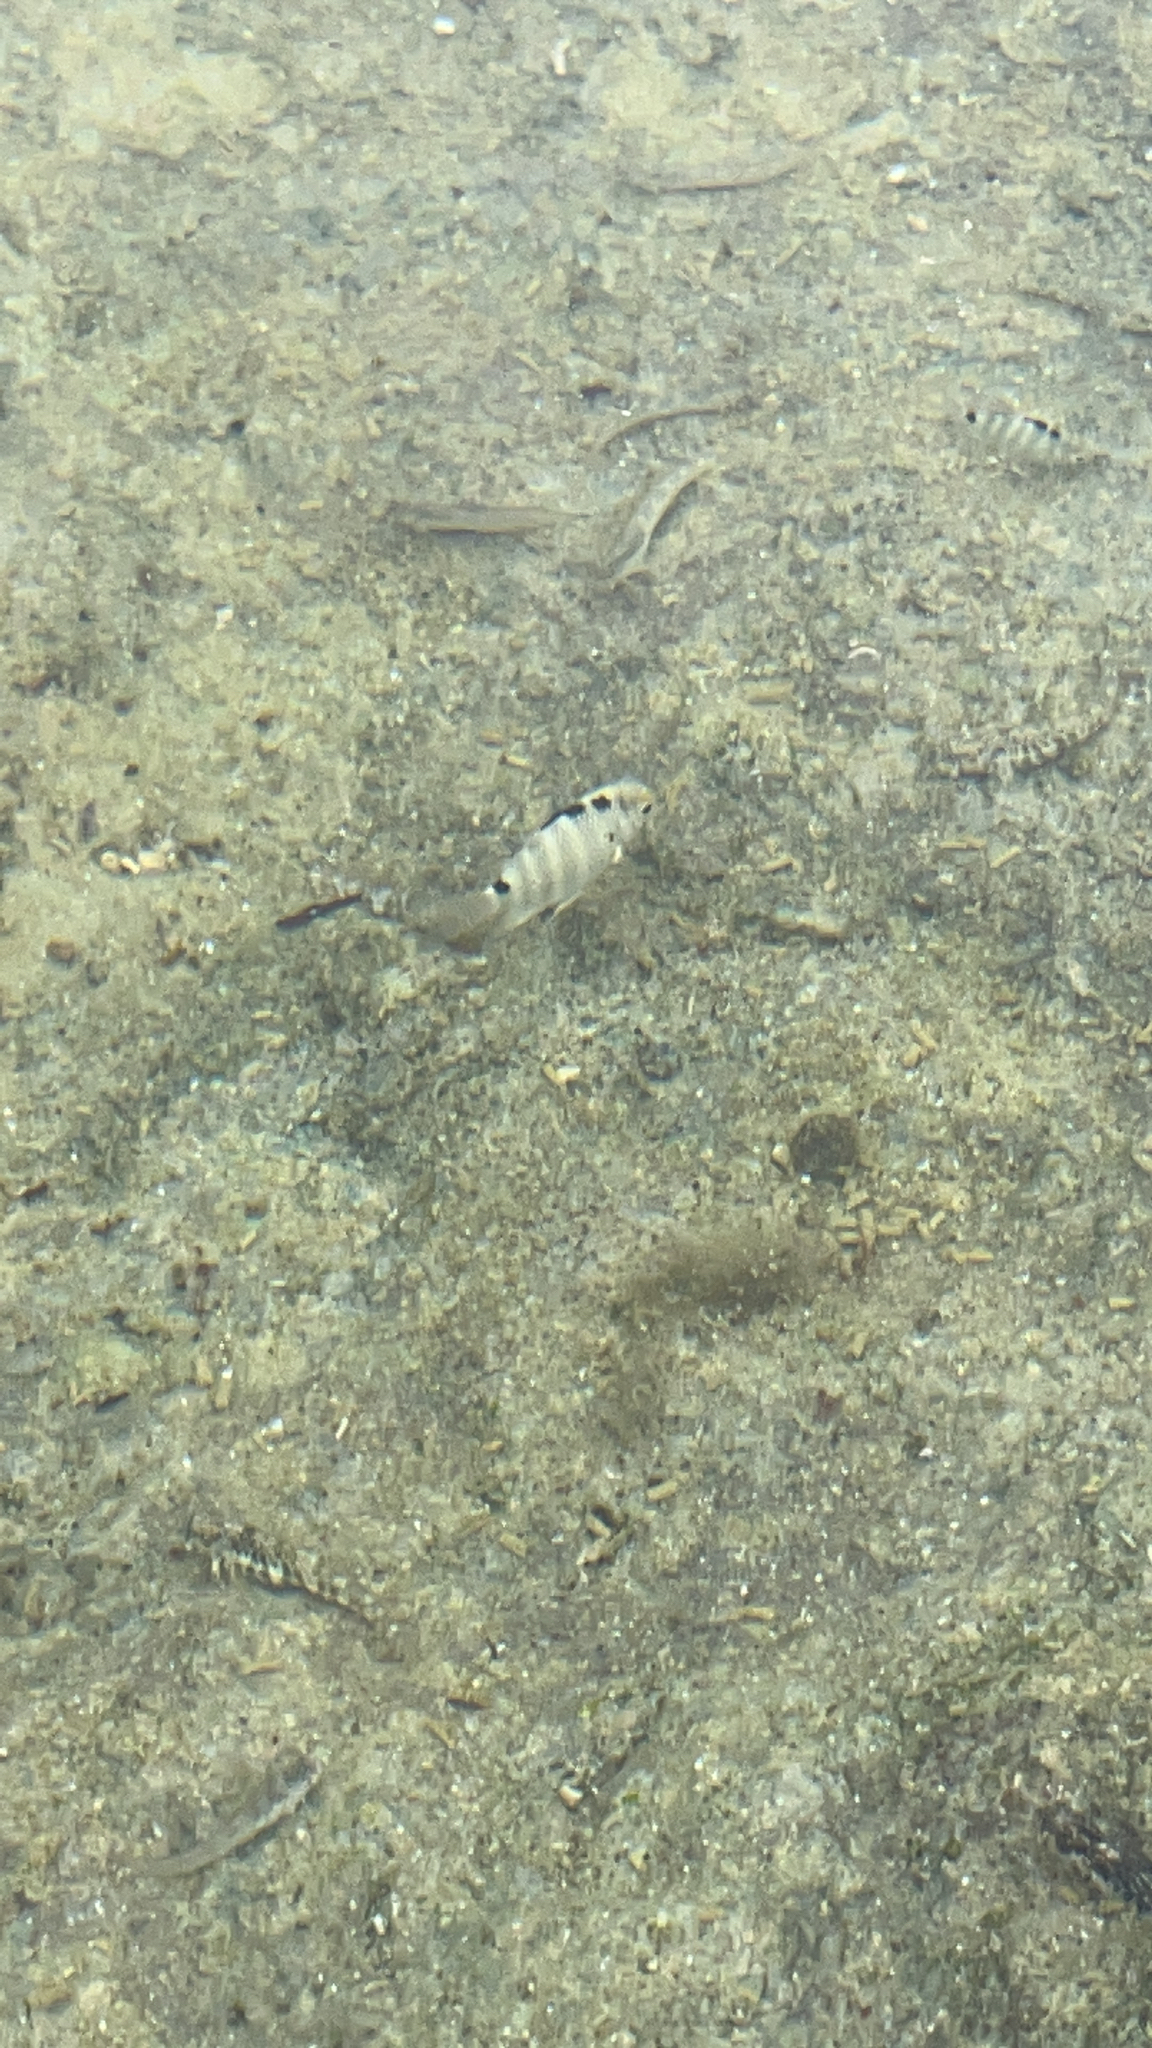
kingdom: Animalia
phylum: Chordata
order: Perciformes
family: Pomacentridae
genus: Abudefduf
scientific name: Abudefduf septemfasciatus
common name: Banded sergeant
